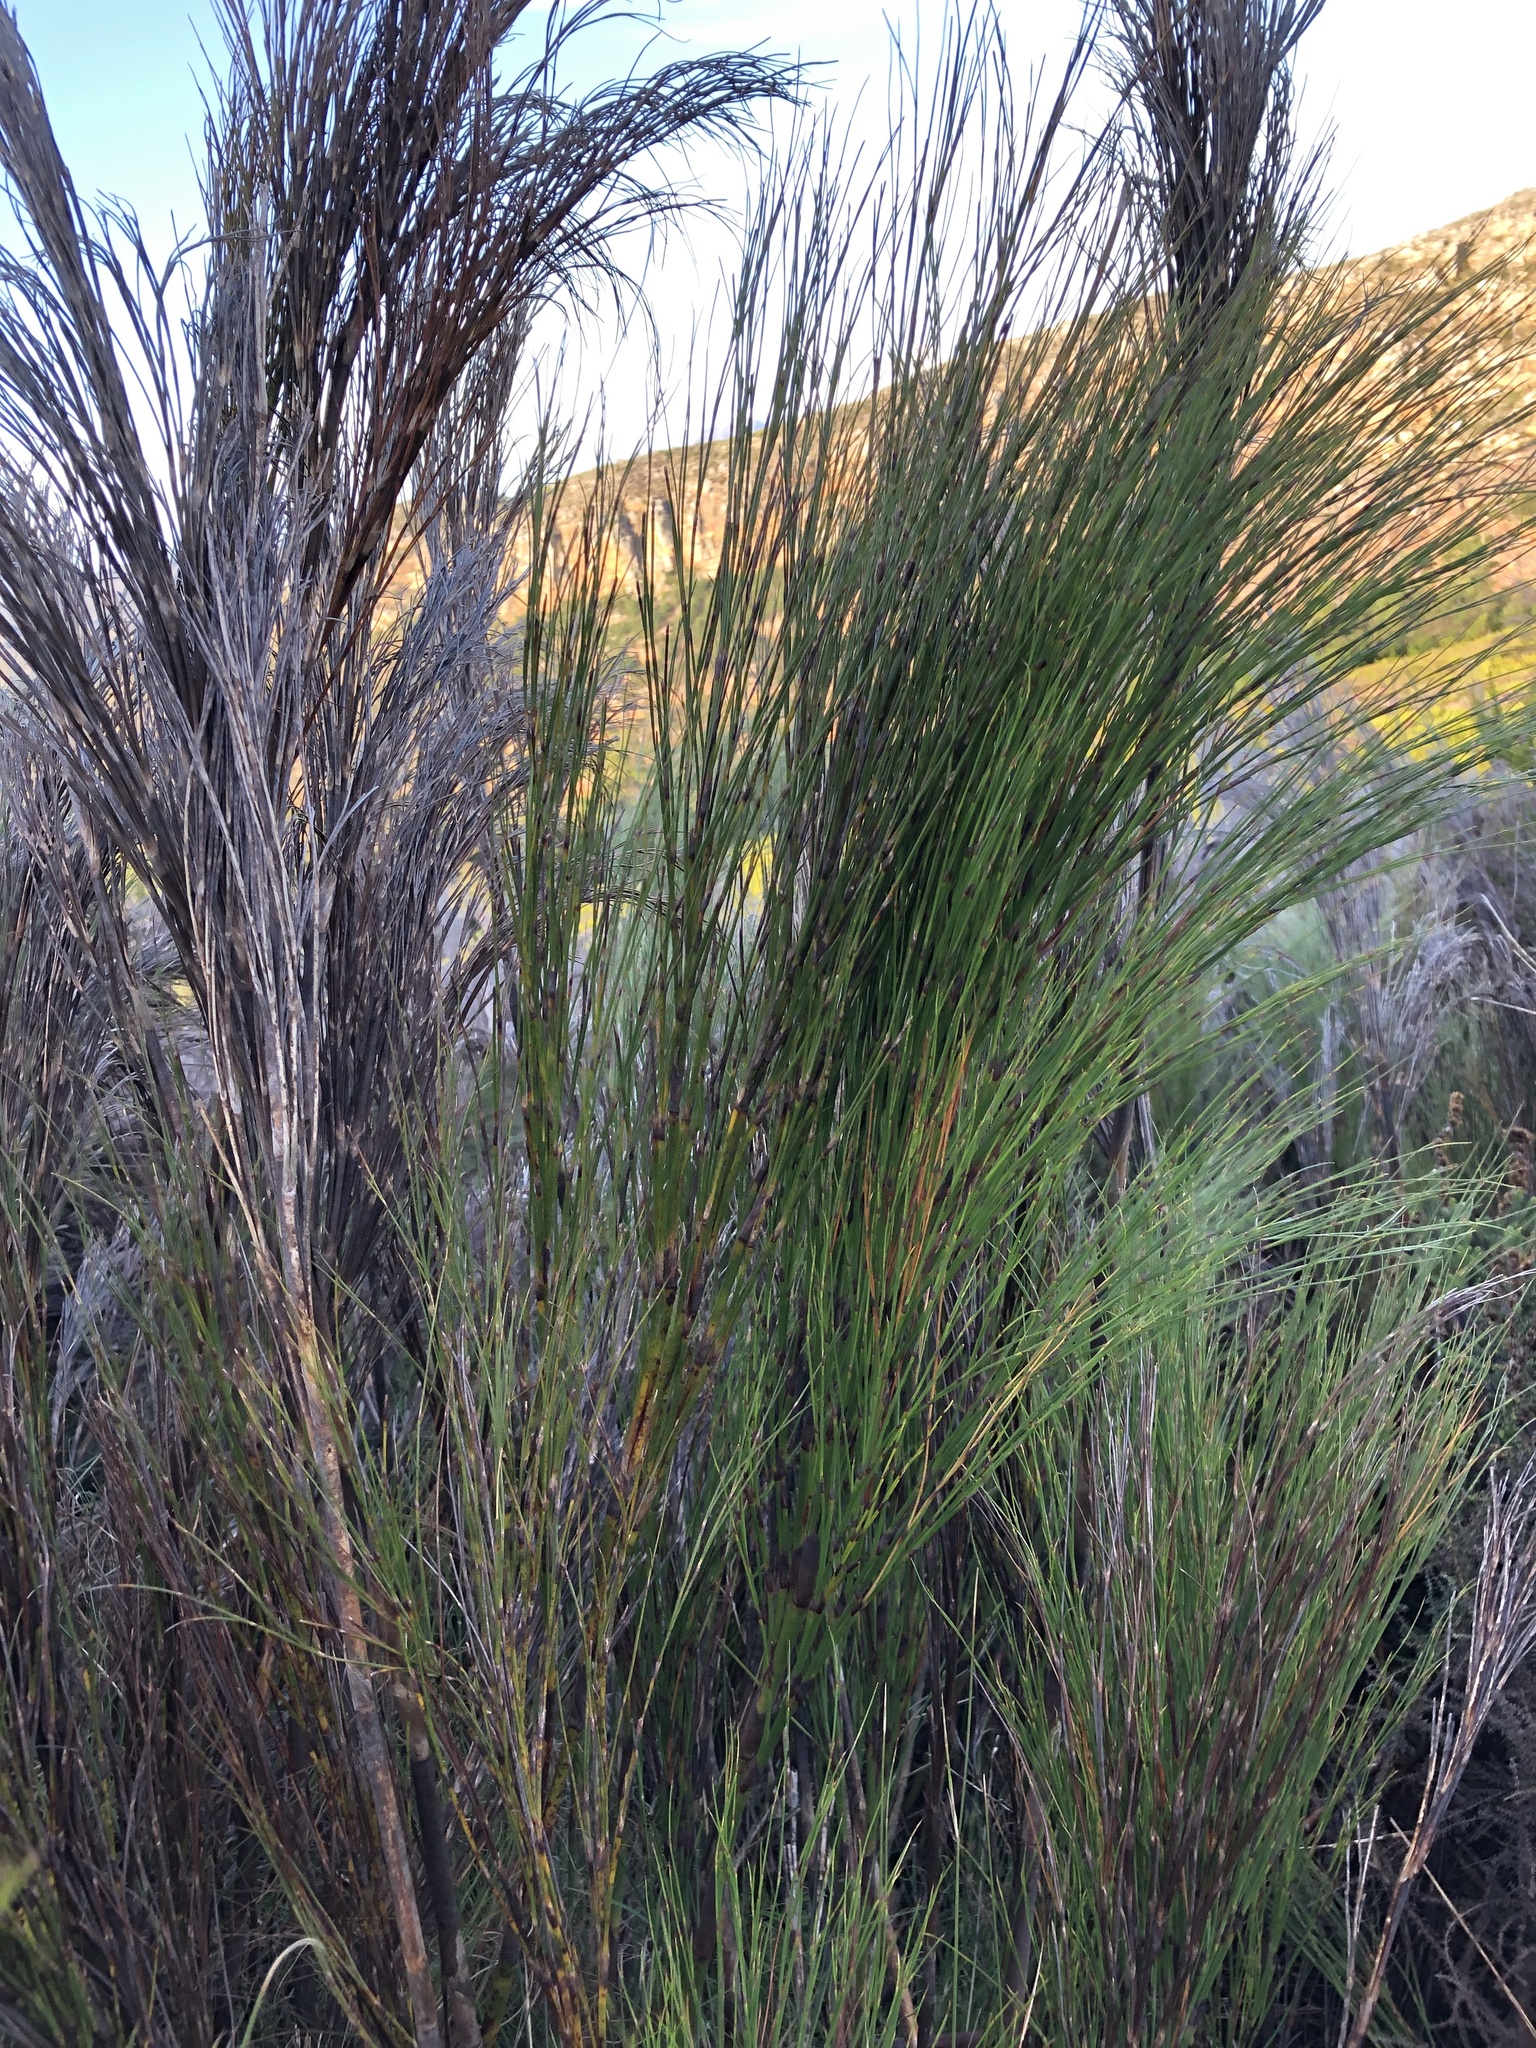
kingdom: Plantae
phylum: Tracheophyta
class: Liliopsida
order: Poales
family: Restionaceae
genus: Cannomois
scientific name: Cannomois virgata
